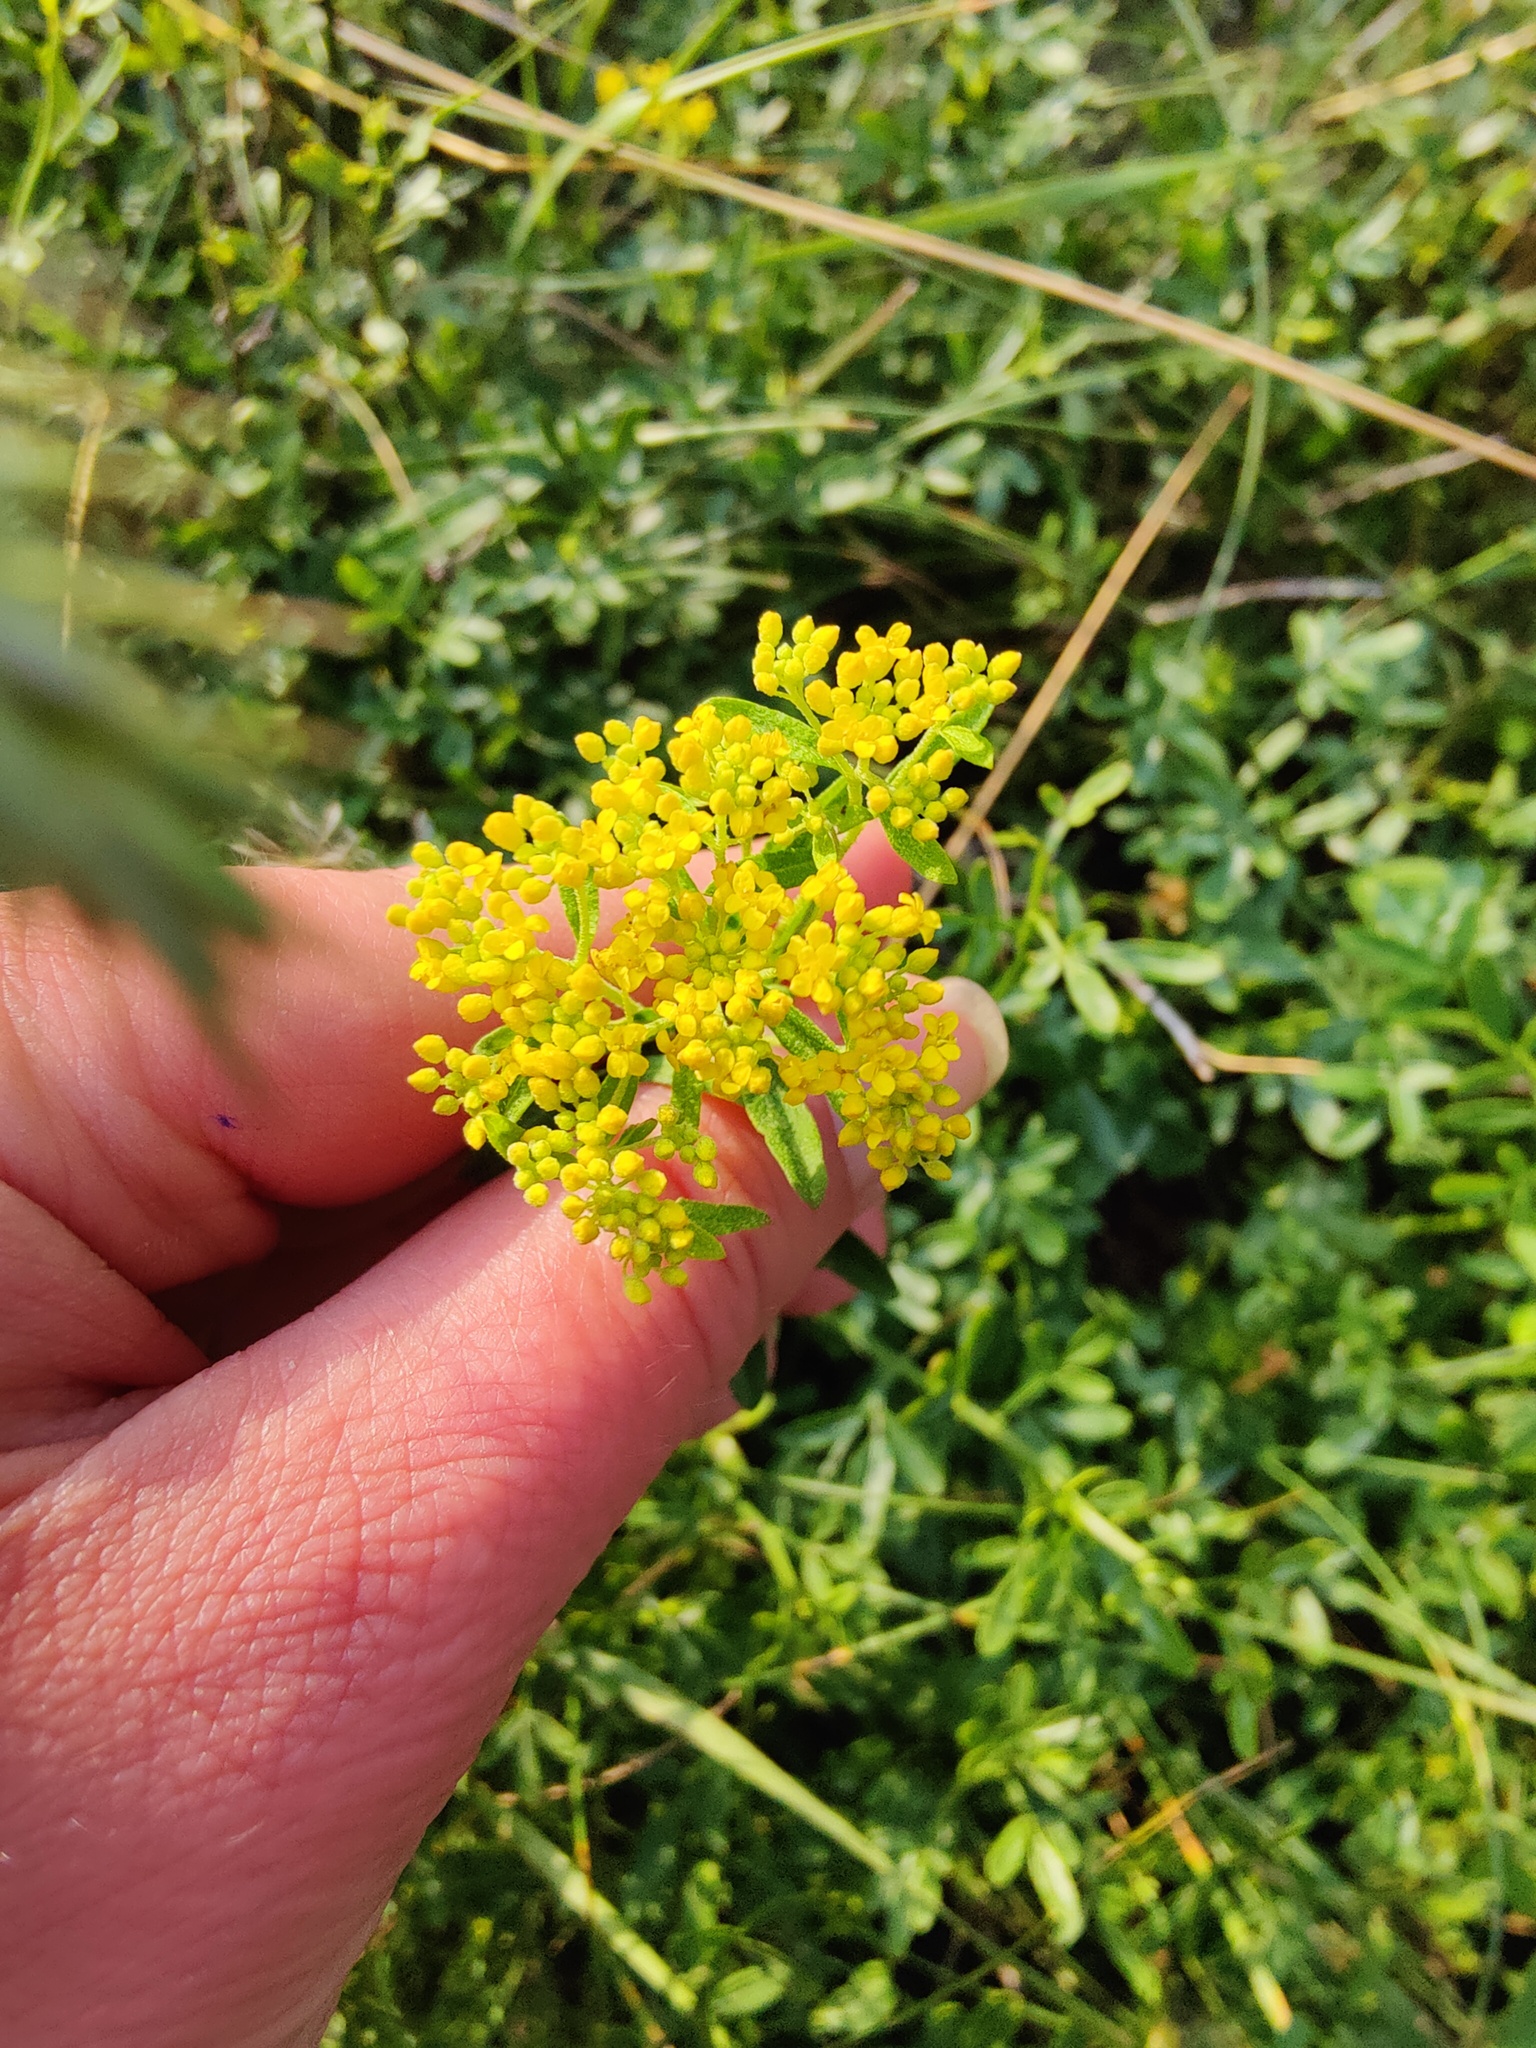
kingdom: Plantae
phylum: Tracheophyta
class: Magnoliopsida
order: Brassicales
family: Brassicaceae
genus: Odontarrhena
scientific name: Odontarrhena muralis
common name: Rock alyssum
